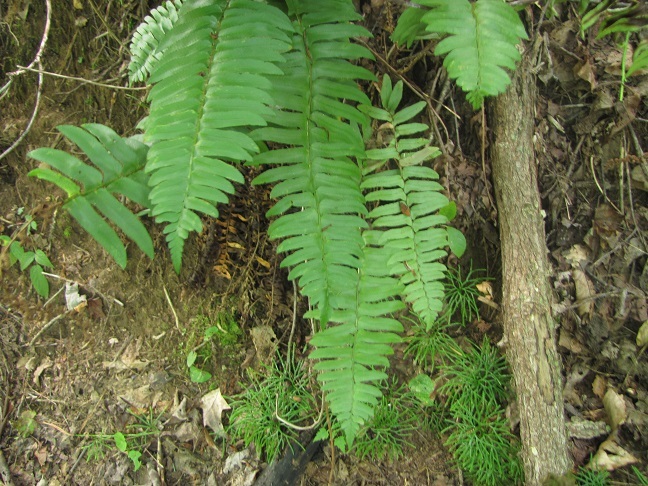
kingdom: Plantae
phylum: Tracheophyta
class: Polypodiopsida
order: Polypodiales
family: Dryopteridaceae
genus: Polystichum
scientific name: Polystichum acrostichoides
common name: Christmas fern
